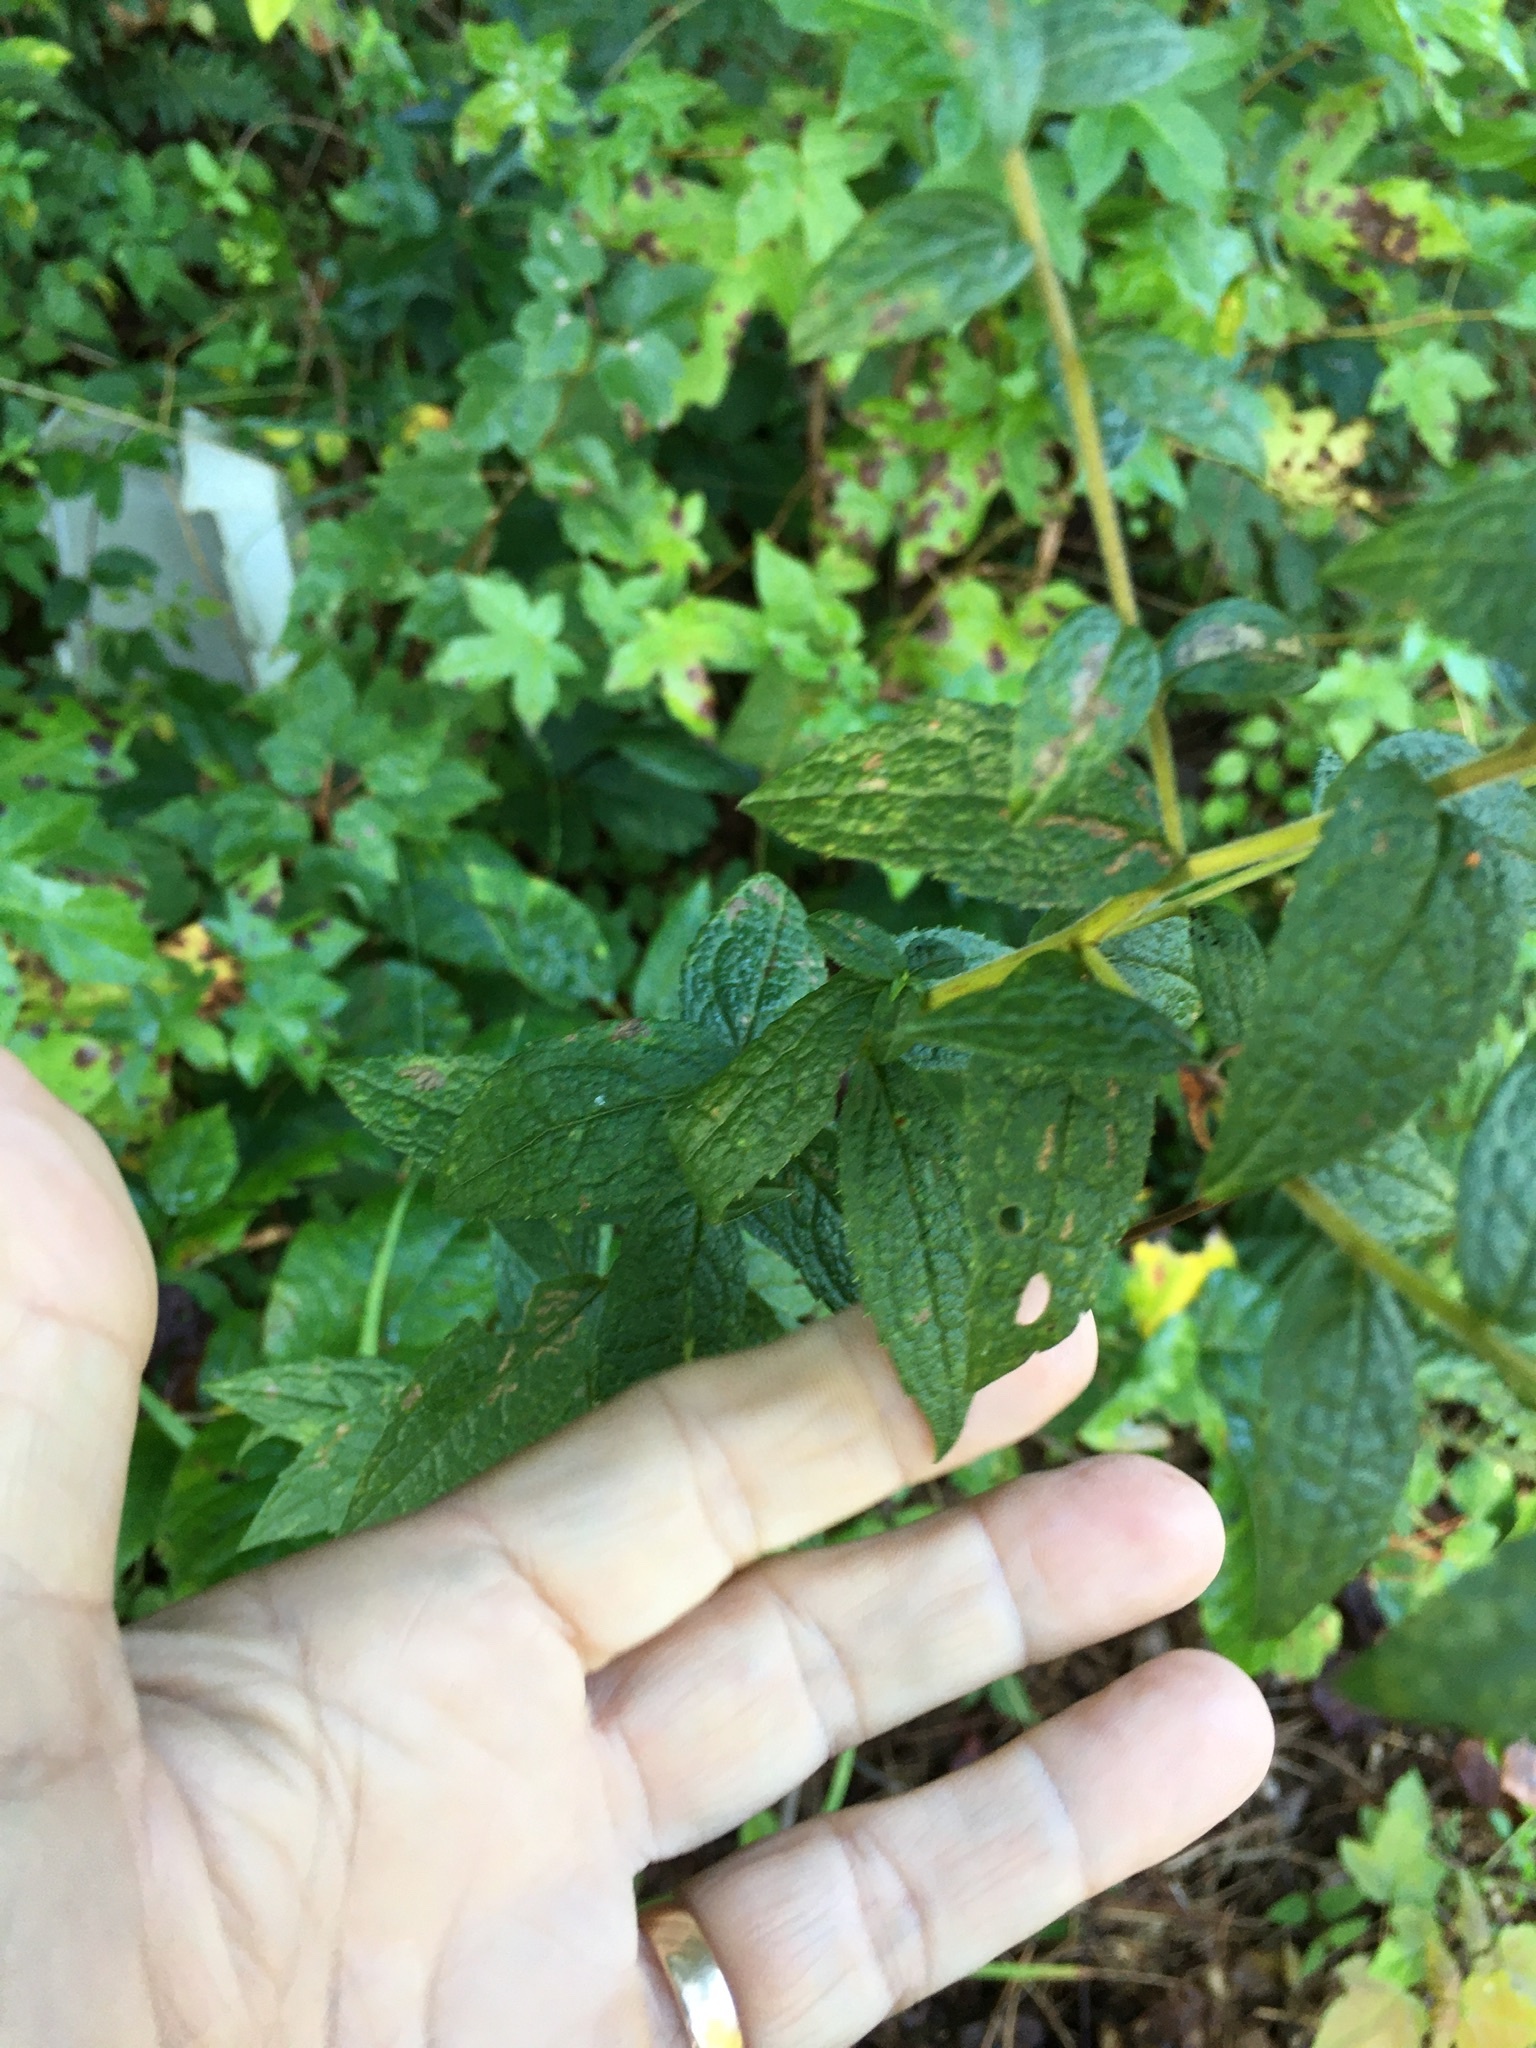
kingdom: Plantae
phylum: Tracheophyta
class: Magnoliopsida
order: Asterales
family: Asteraceae
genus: Solidago
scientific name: Solidago rugosa
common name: Rough-stemmed goldenrod
